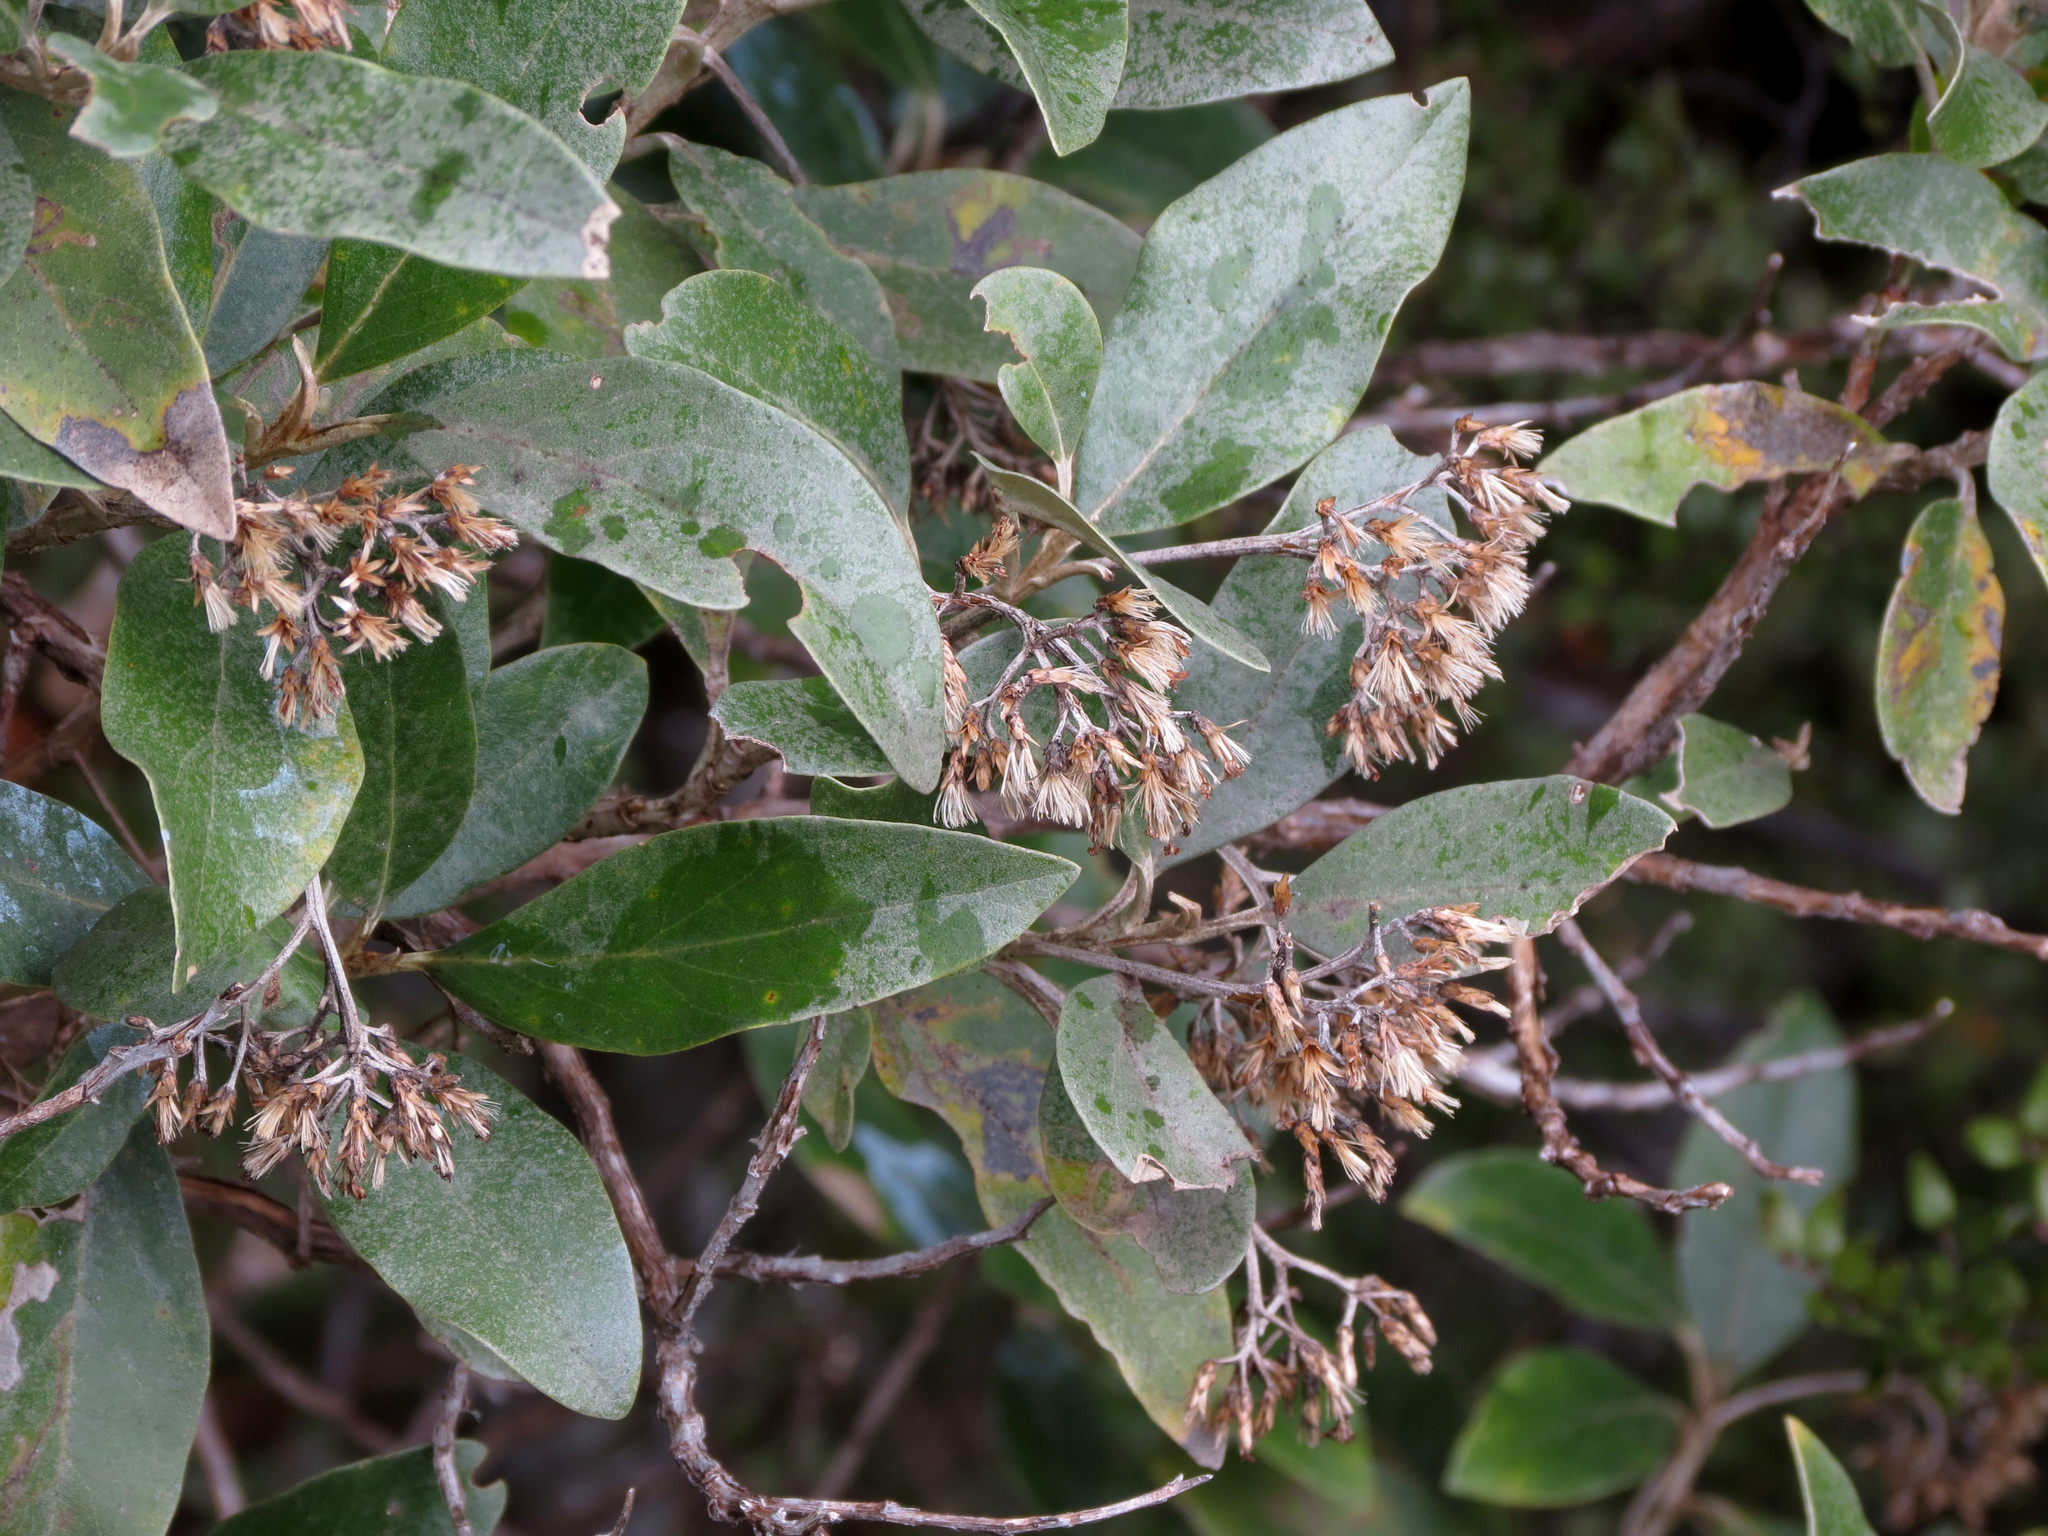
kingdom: Plantae
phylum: Tracheophyta
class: Magnoliopsida
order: Asterales
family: Asteraceae
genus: Olearia
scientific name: Olearia avicenniifolia
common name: Mangrove-leaf daisybush
